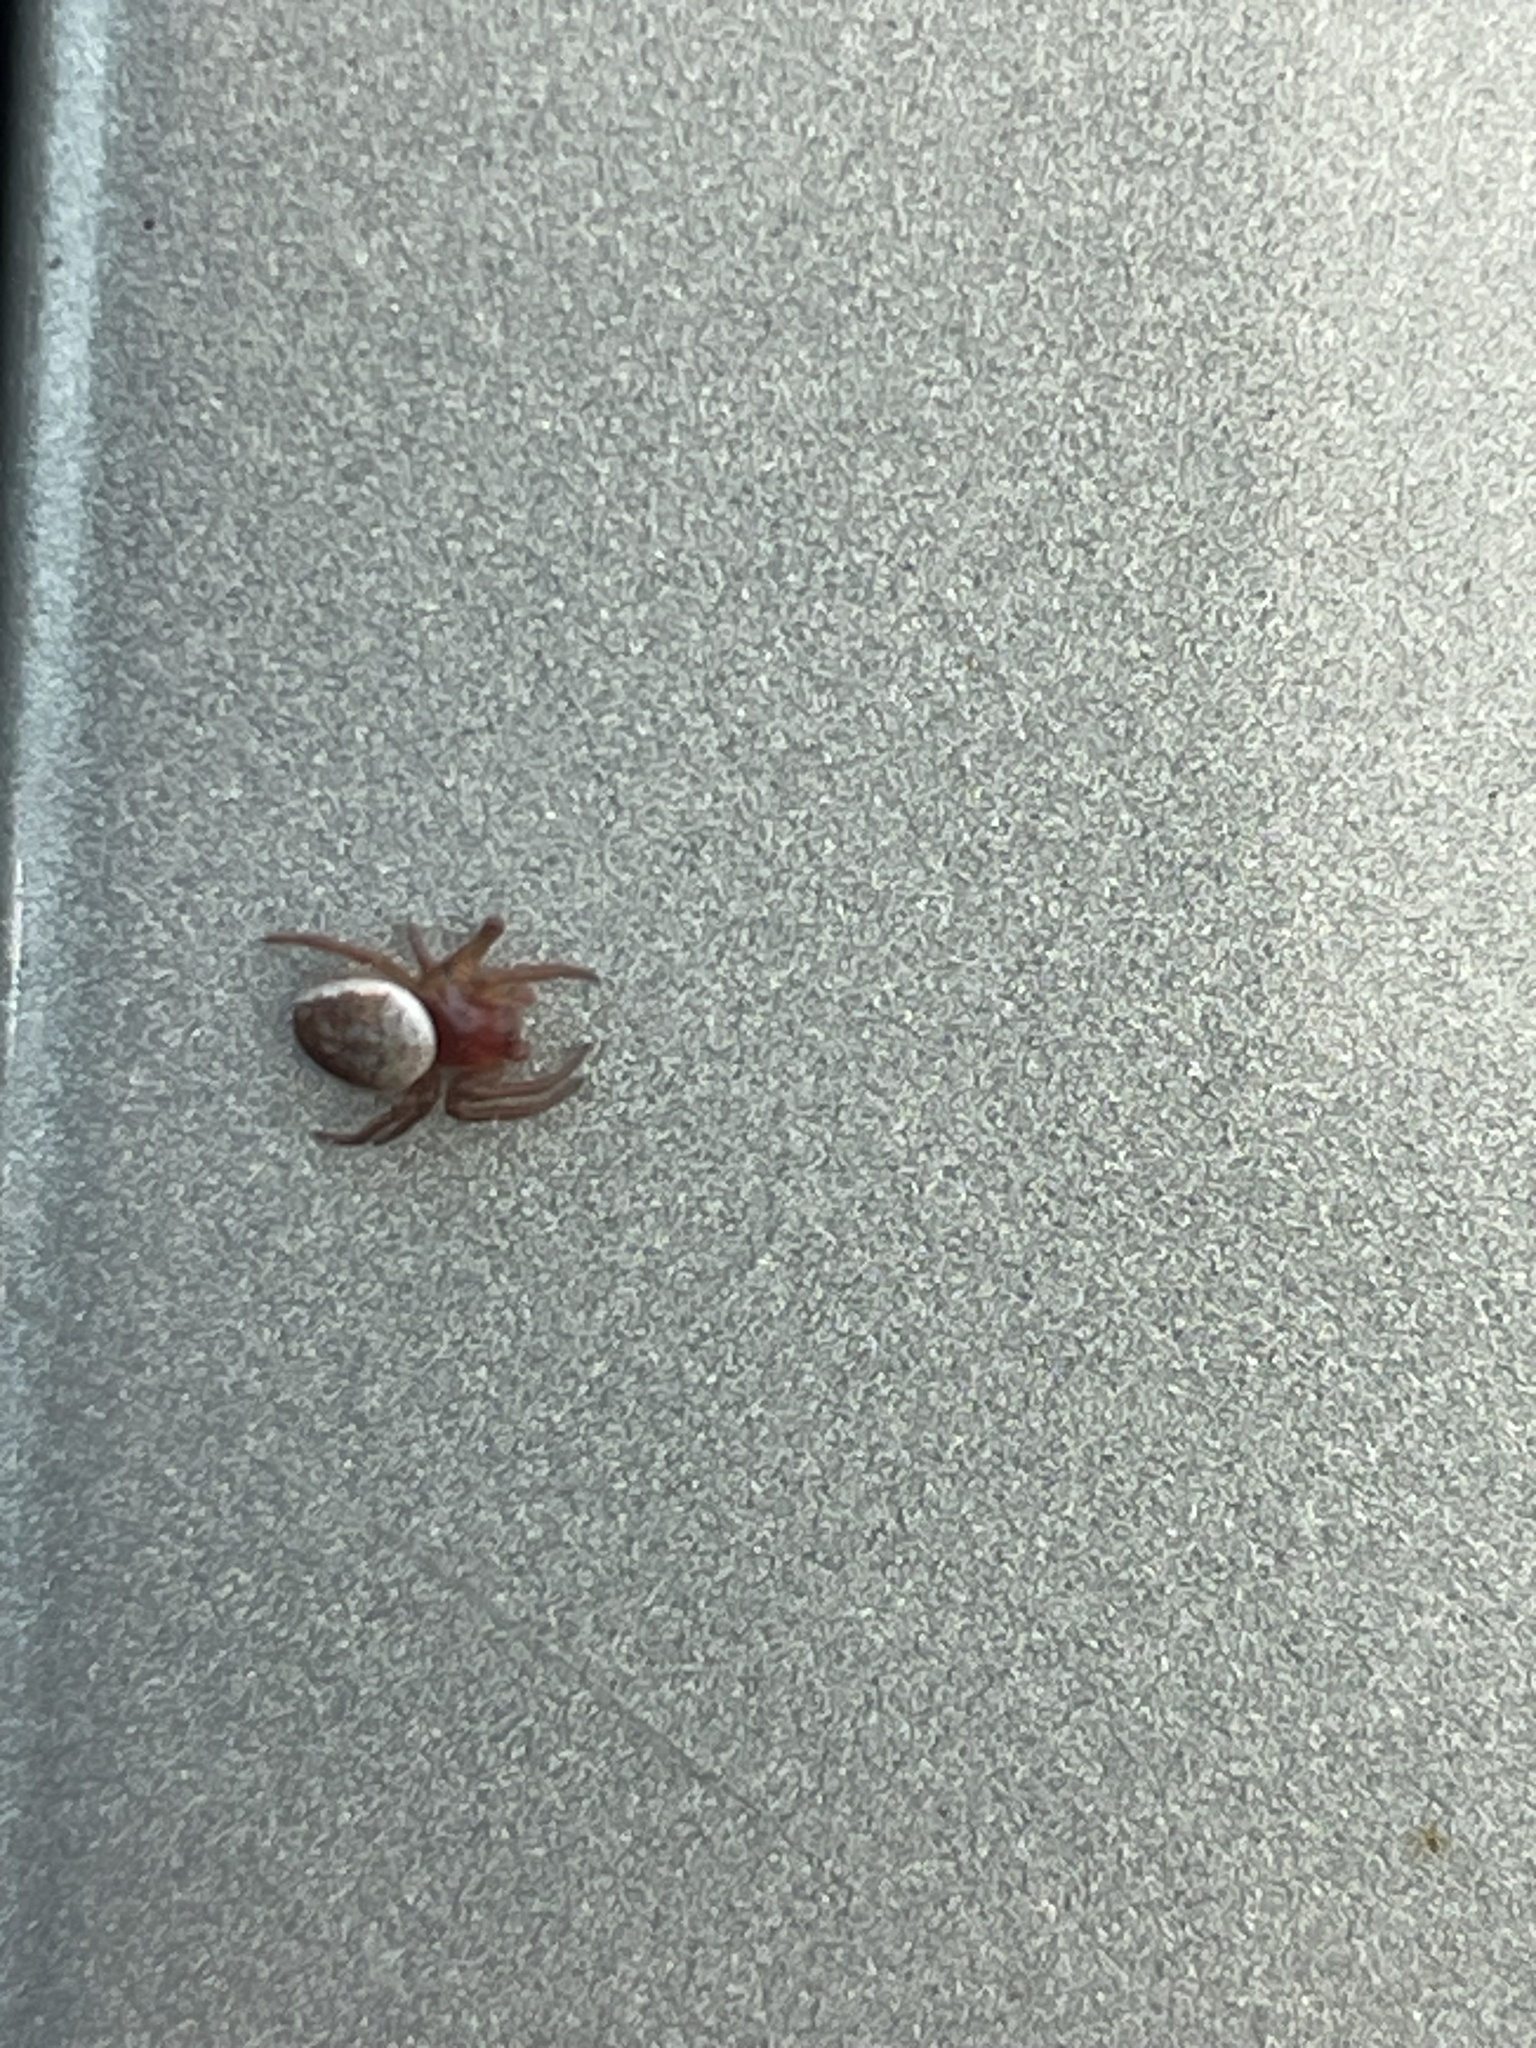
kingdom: Animalia
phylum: Arthropoda
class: Arachnida
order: Araneae
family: Araneidae
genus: Araniella
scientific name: Araniella
